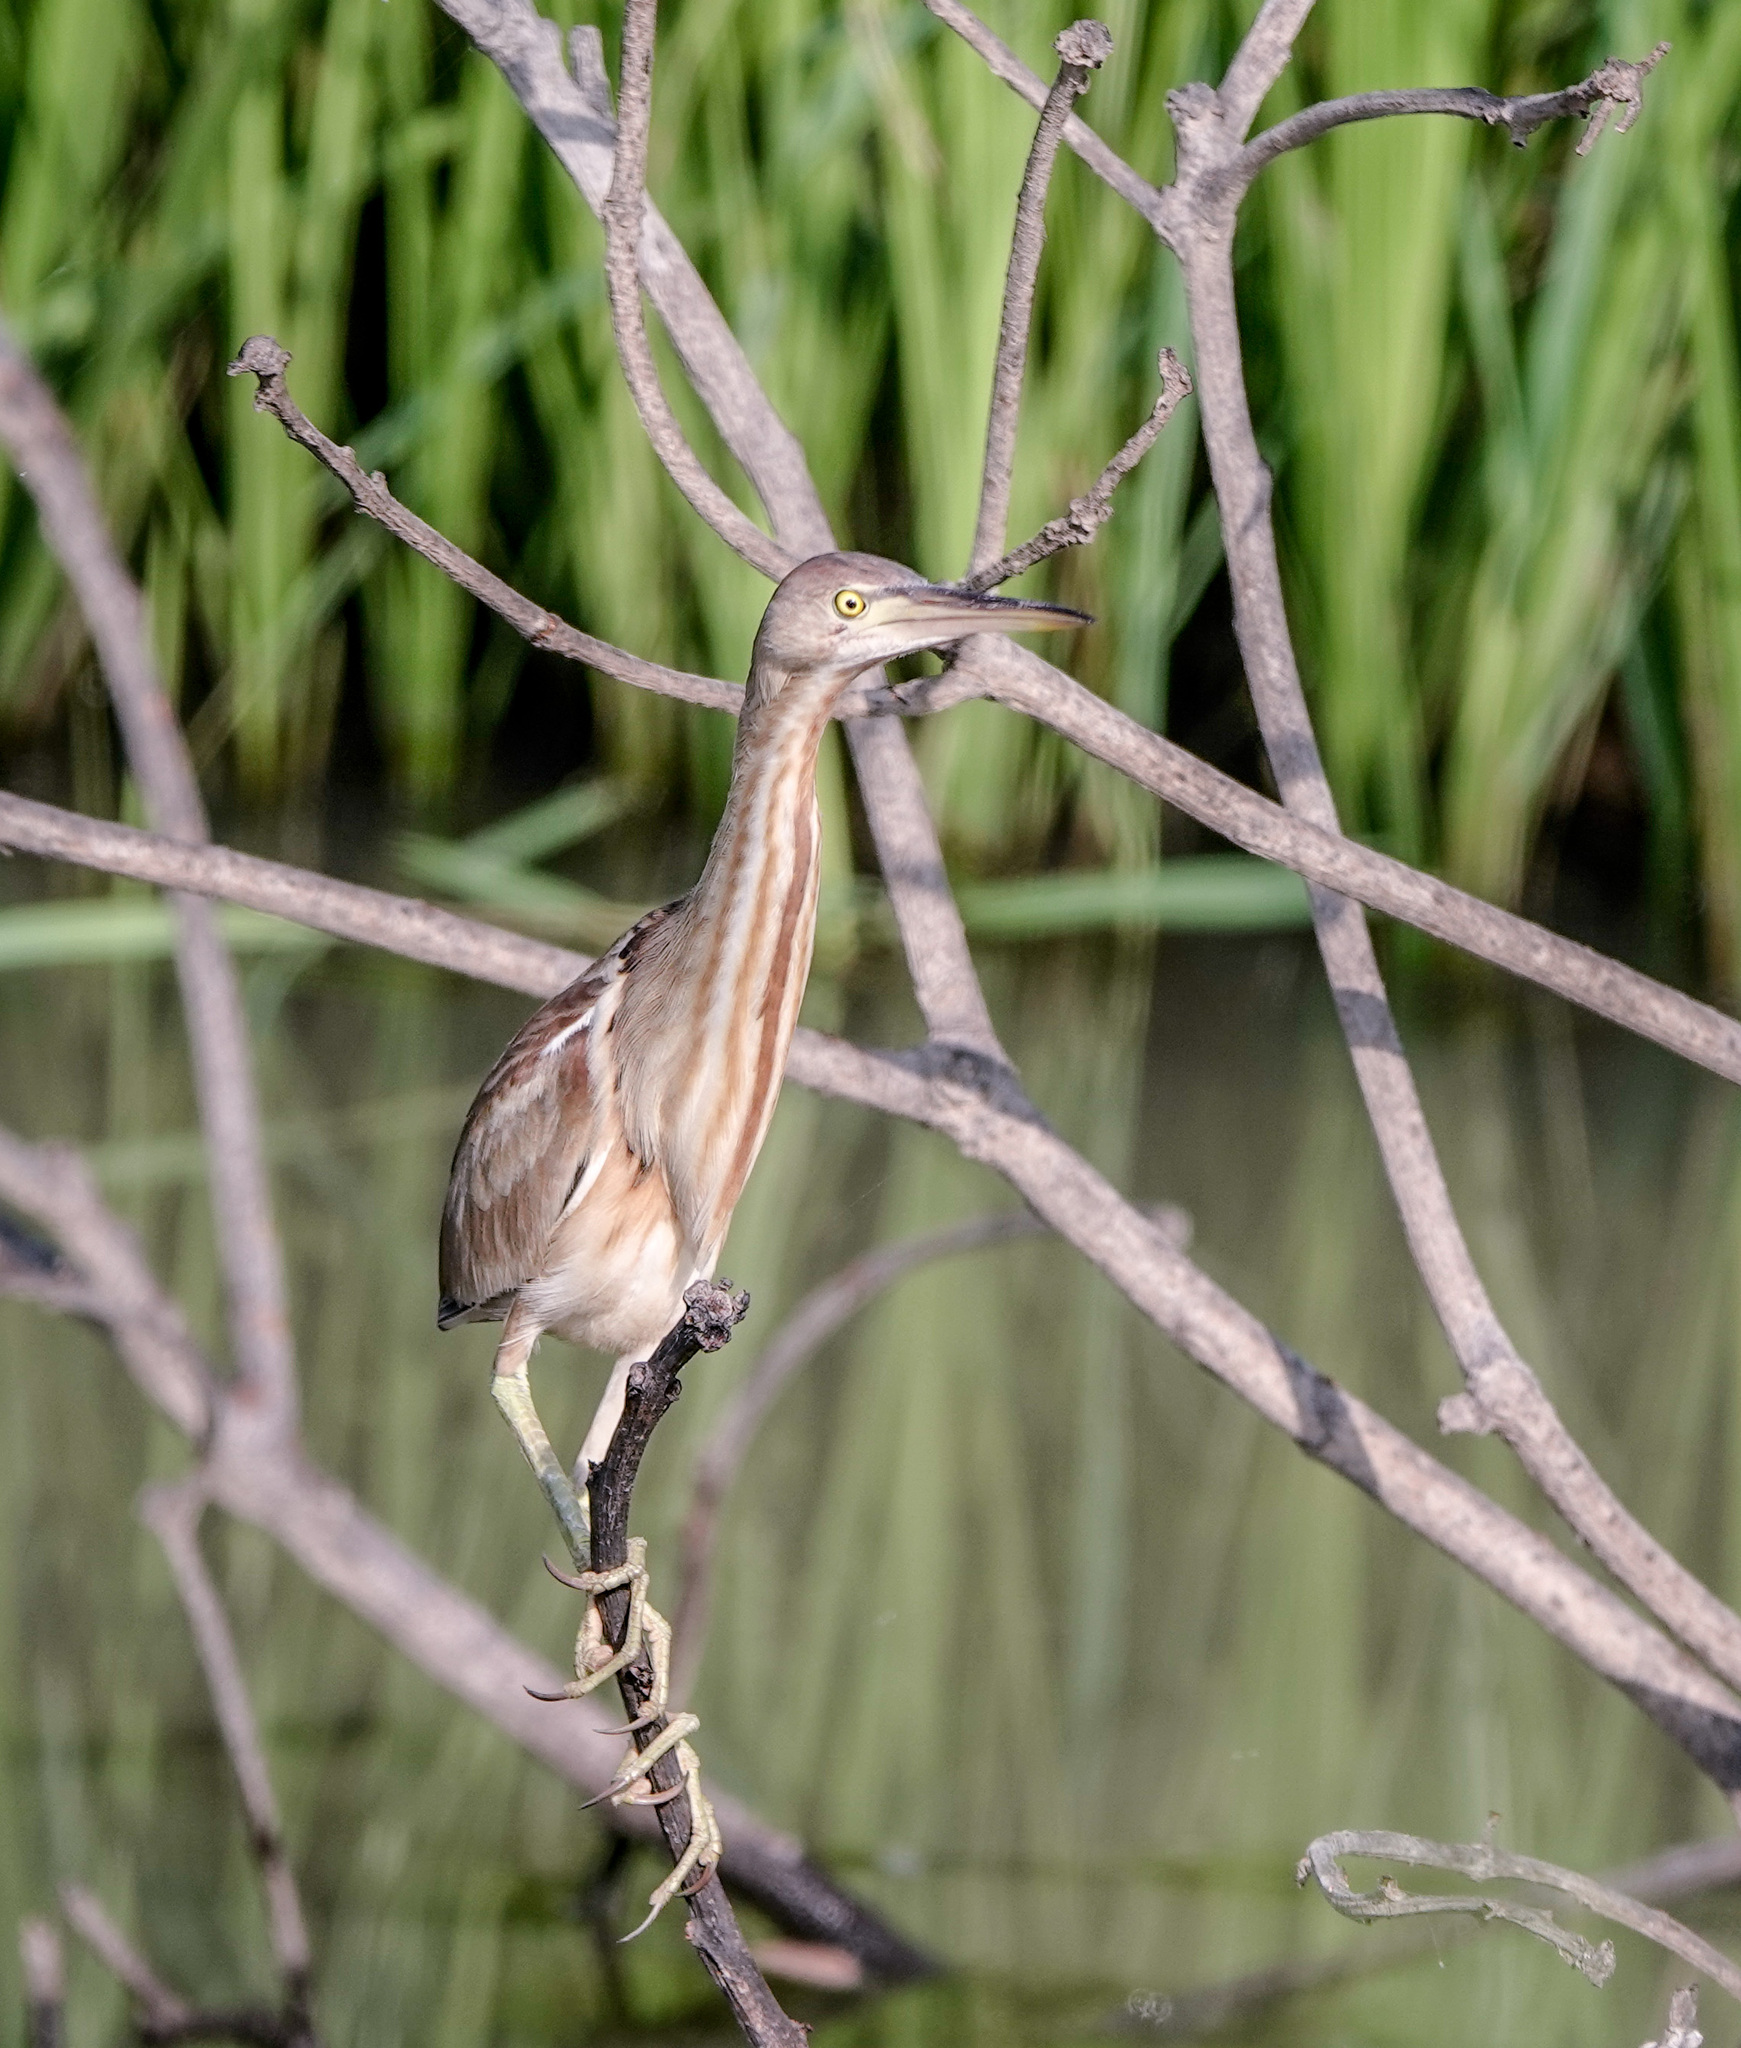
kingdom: Animalia
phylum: Chordata
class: Aves
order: Pelecaniformes
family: Ardeidae
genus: Ixobrychus
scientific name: Ixobrychus sinensis
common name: Yellow bittern
